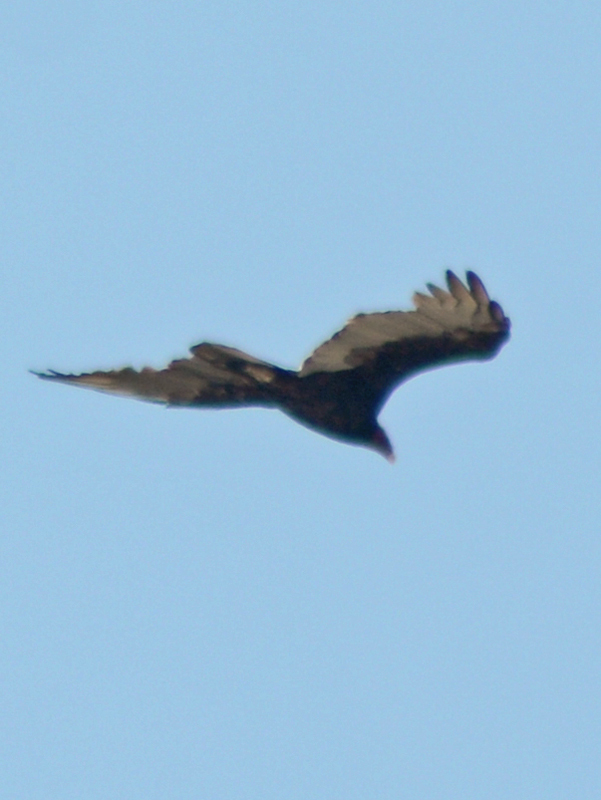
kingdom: Animalia
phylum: Chordata
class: Aves
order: Accipitriformes
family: Cathartidae
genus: Cathartes
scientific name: Cathartes aura
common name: Turkey vulture
